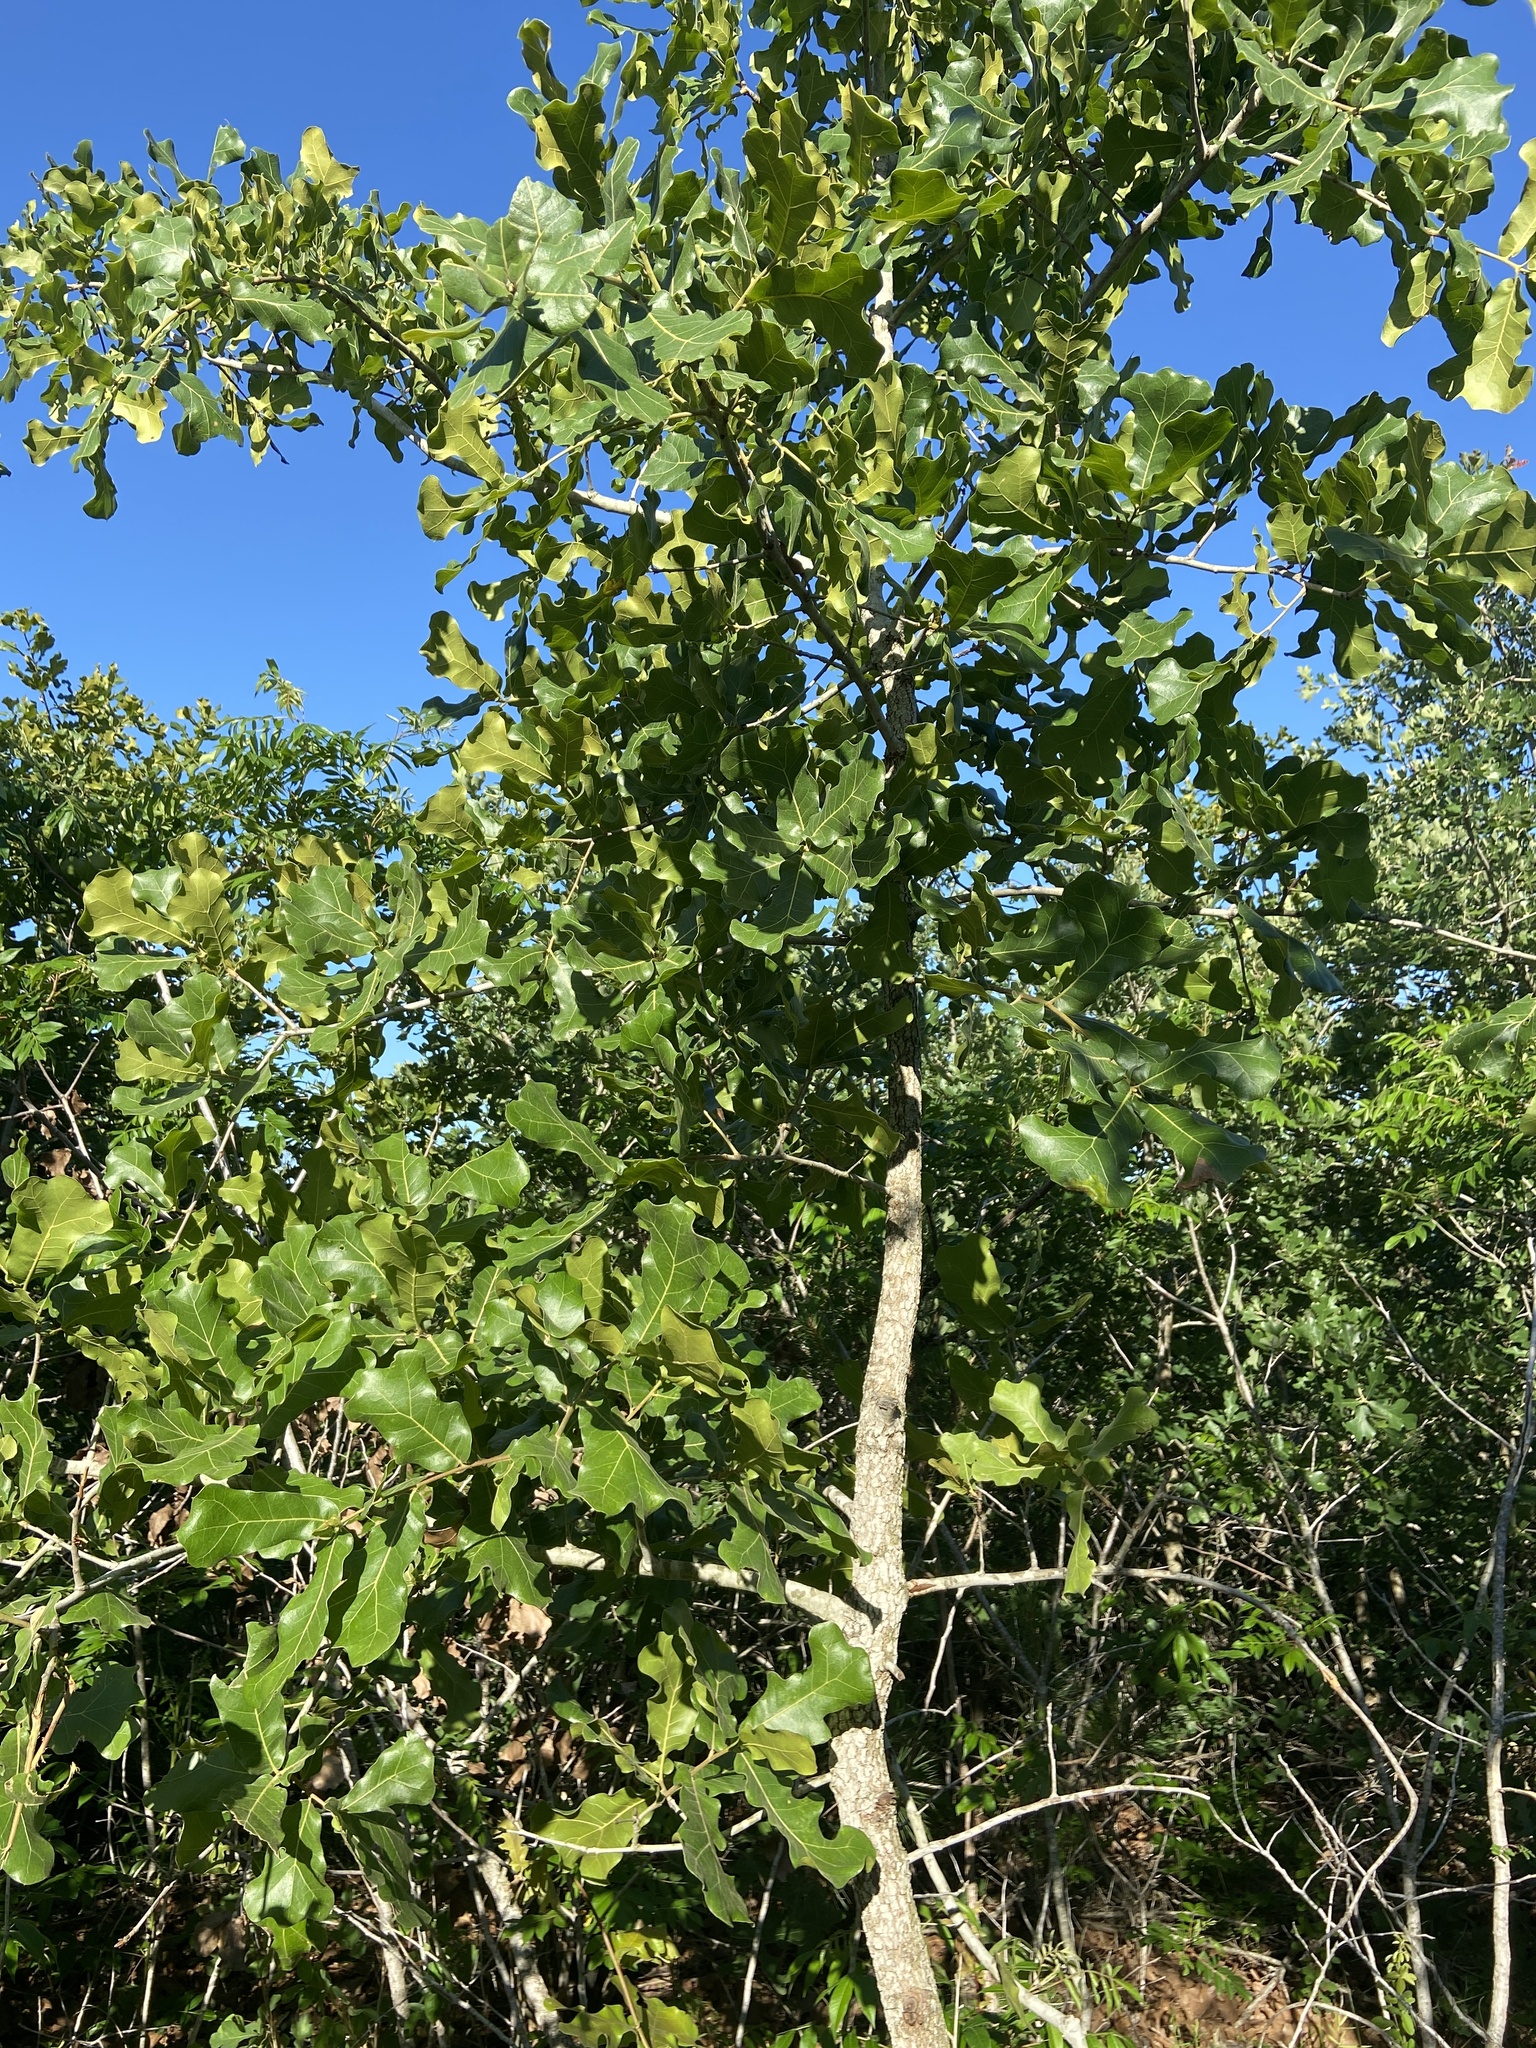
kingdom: Plantae
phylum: Tracheophyta
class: Magnoliopsida
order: Fagales
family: Fagaceae
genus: Quercus
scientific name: Quercus marilandica
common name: Blackjack oak
